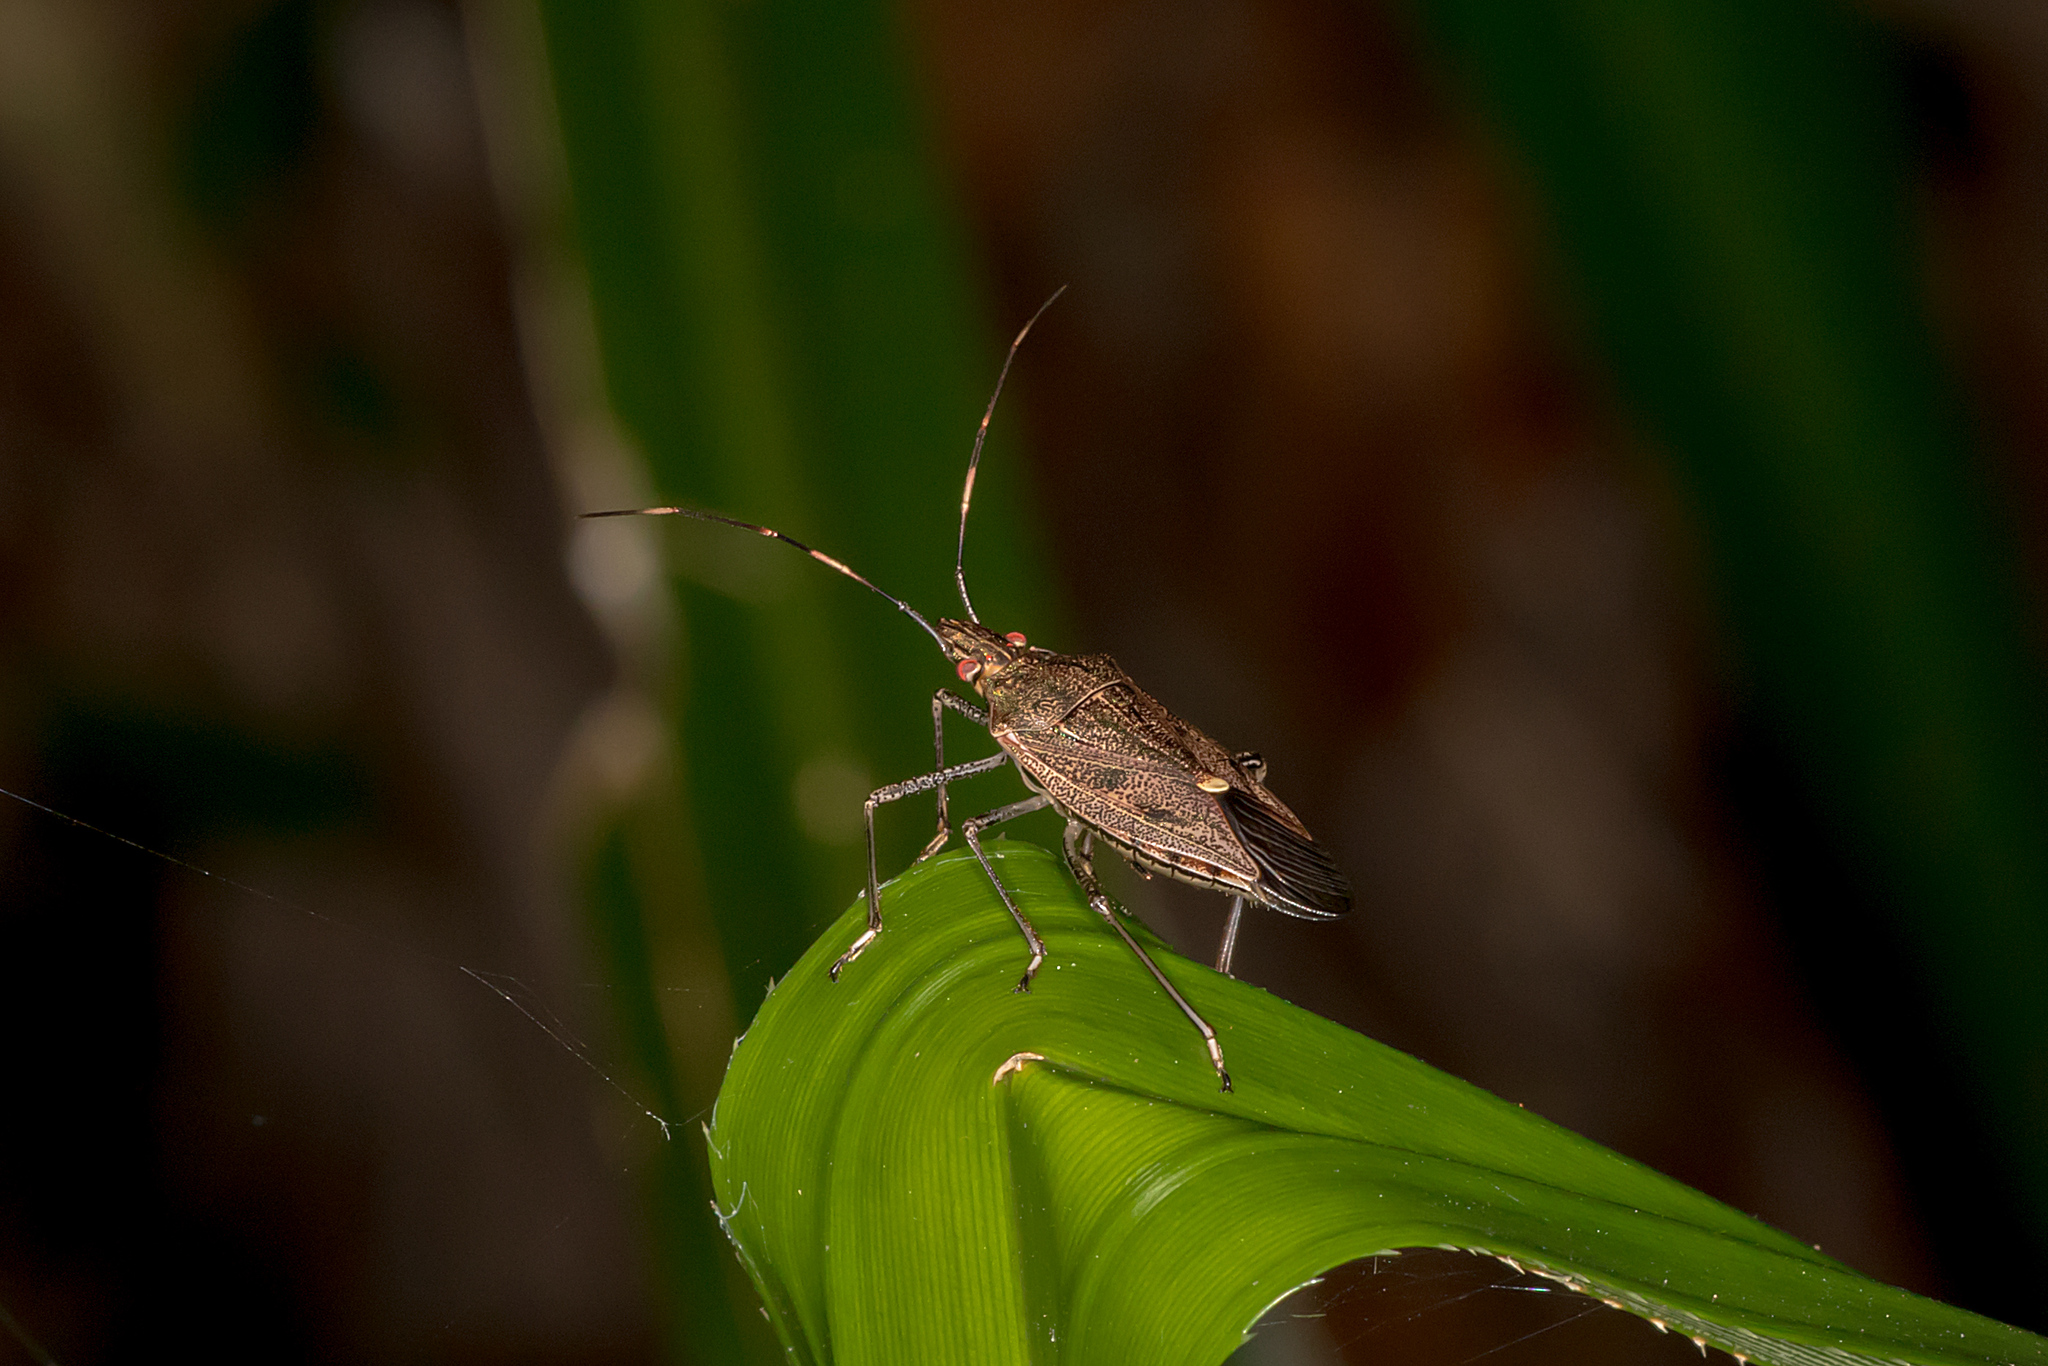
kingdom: Animalia
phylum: Arthropoda
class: Insecta
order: Hemiptera
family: Pentatomidae
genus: Poecilometis
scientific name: Poecilometis
